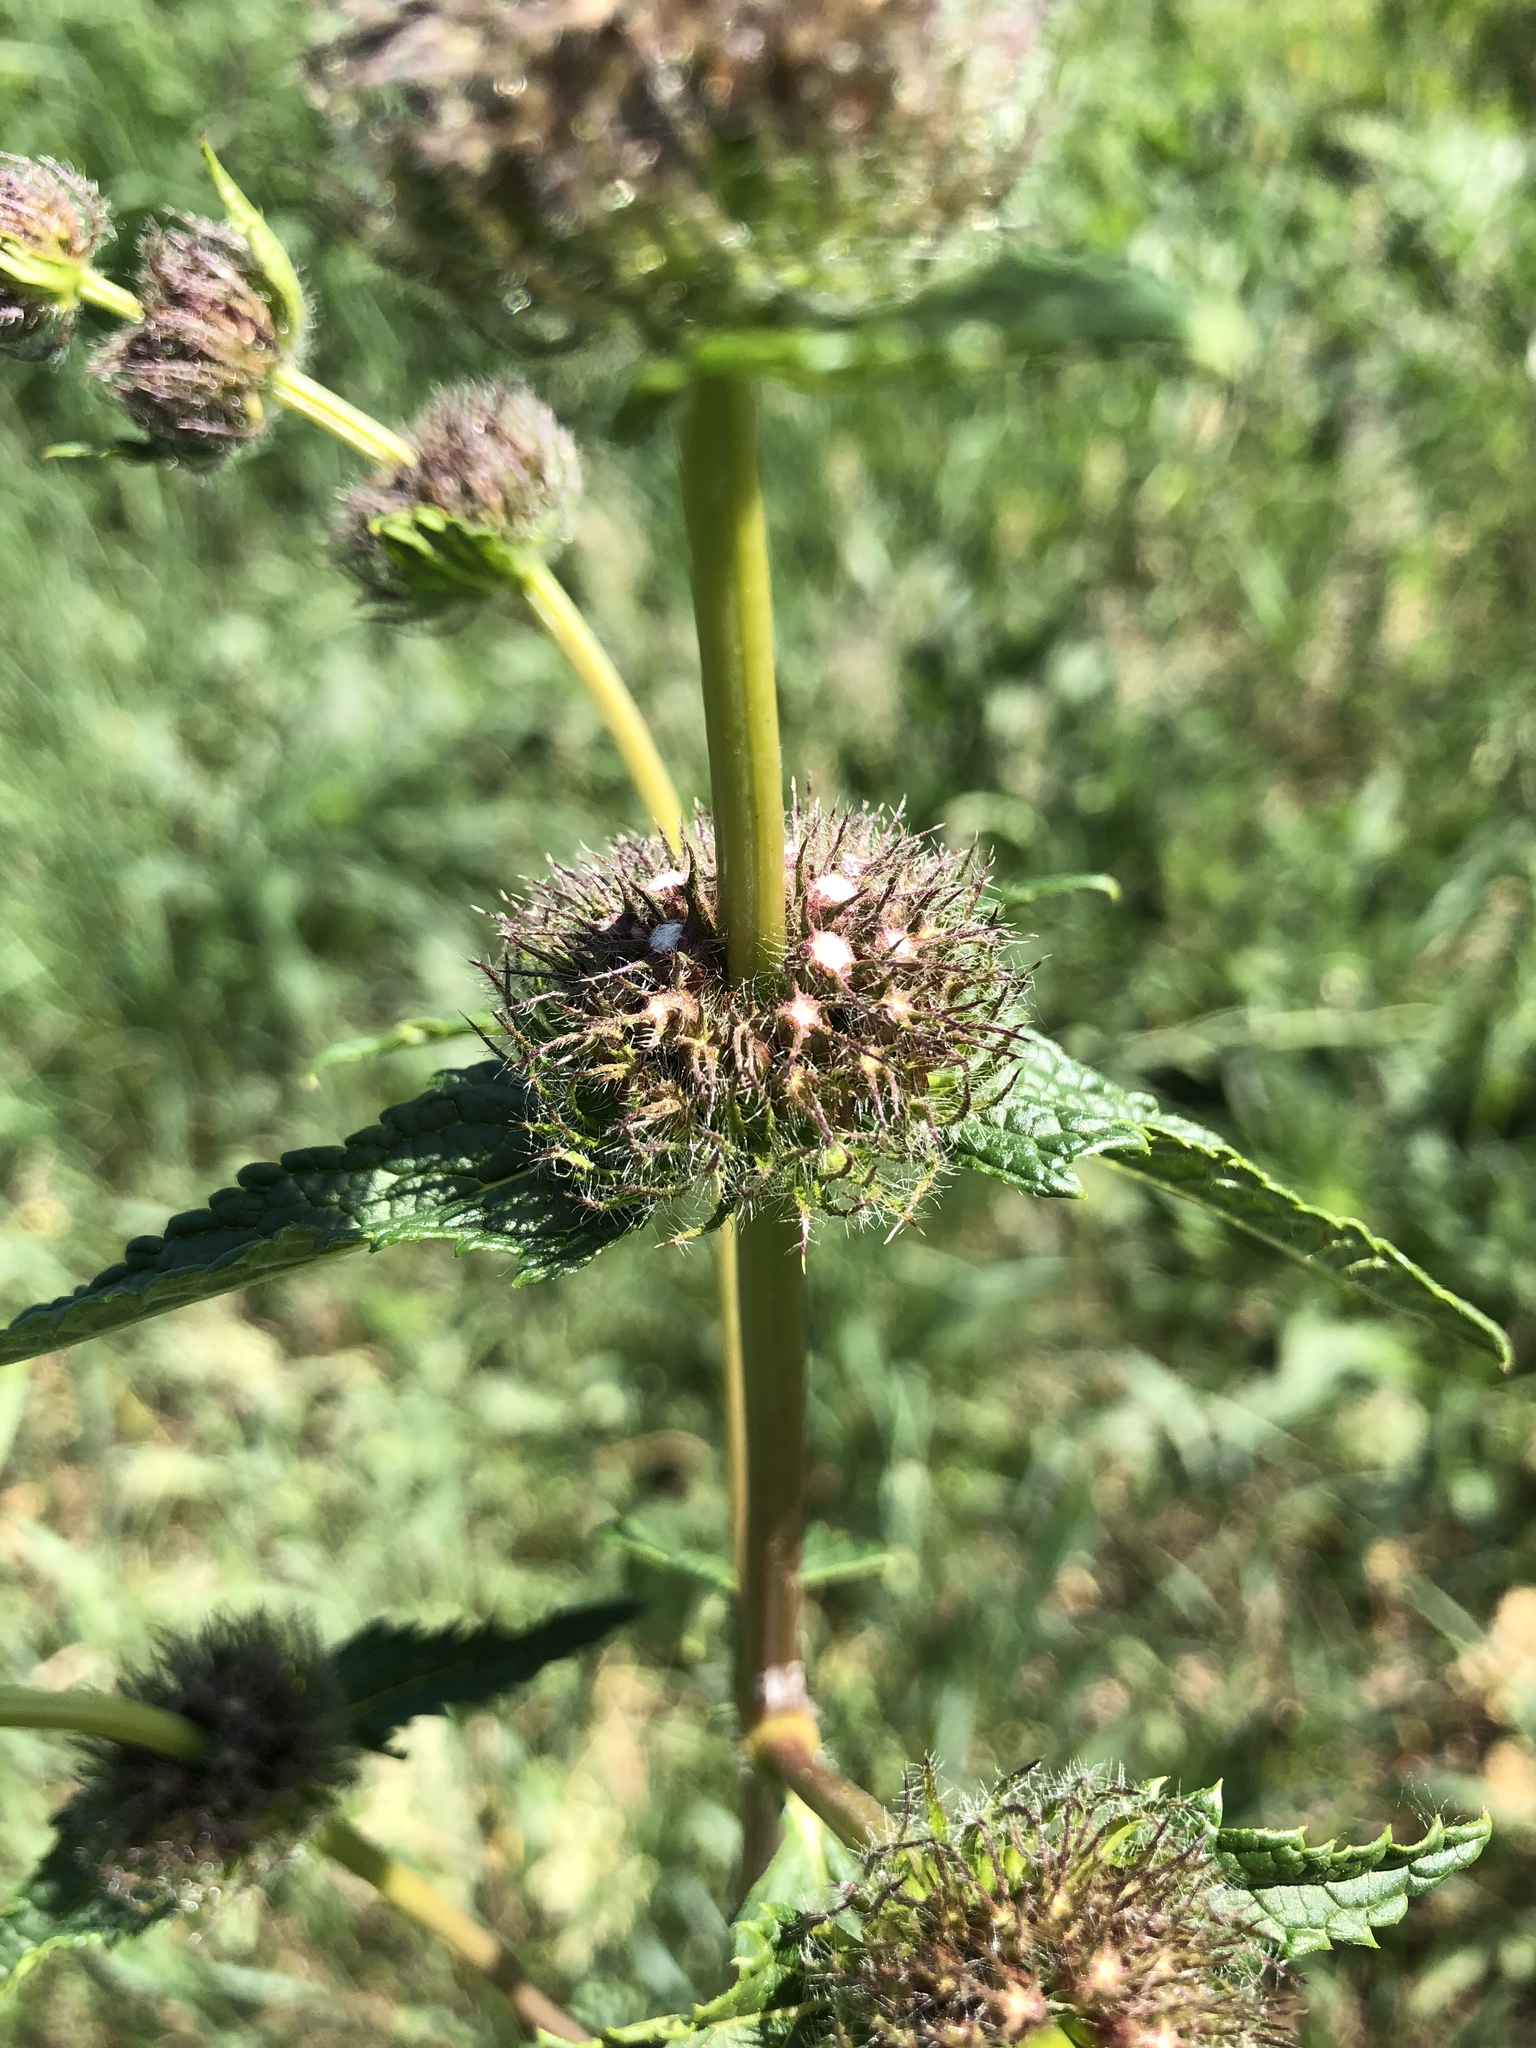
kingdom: Plantae
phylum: Tracheophyta
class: Magnoliopsida
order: Lamiales
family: Lamiaceae
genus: Phlomoides
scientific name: Phlomoides tuberosa
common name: Tuberous jerusalem sage
